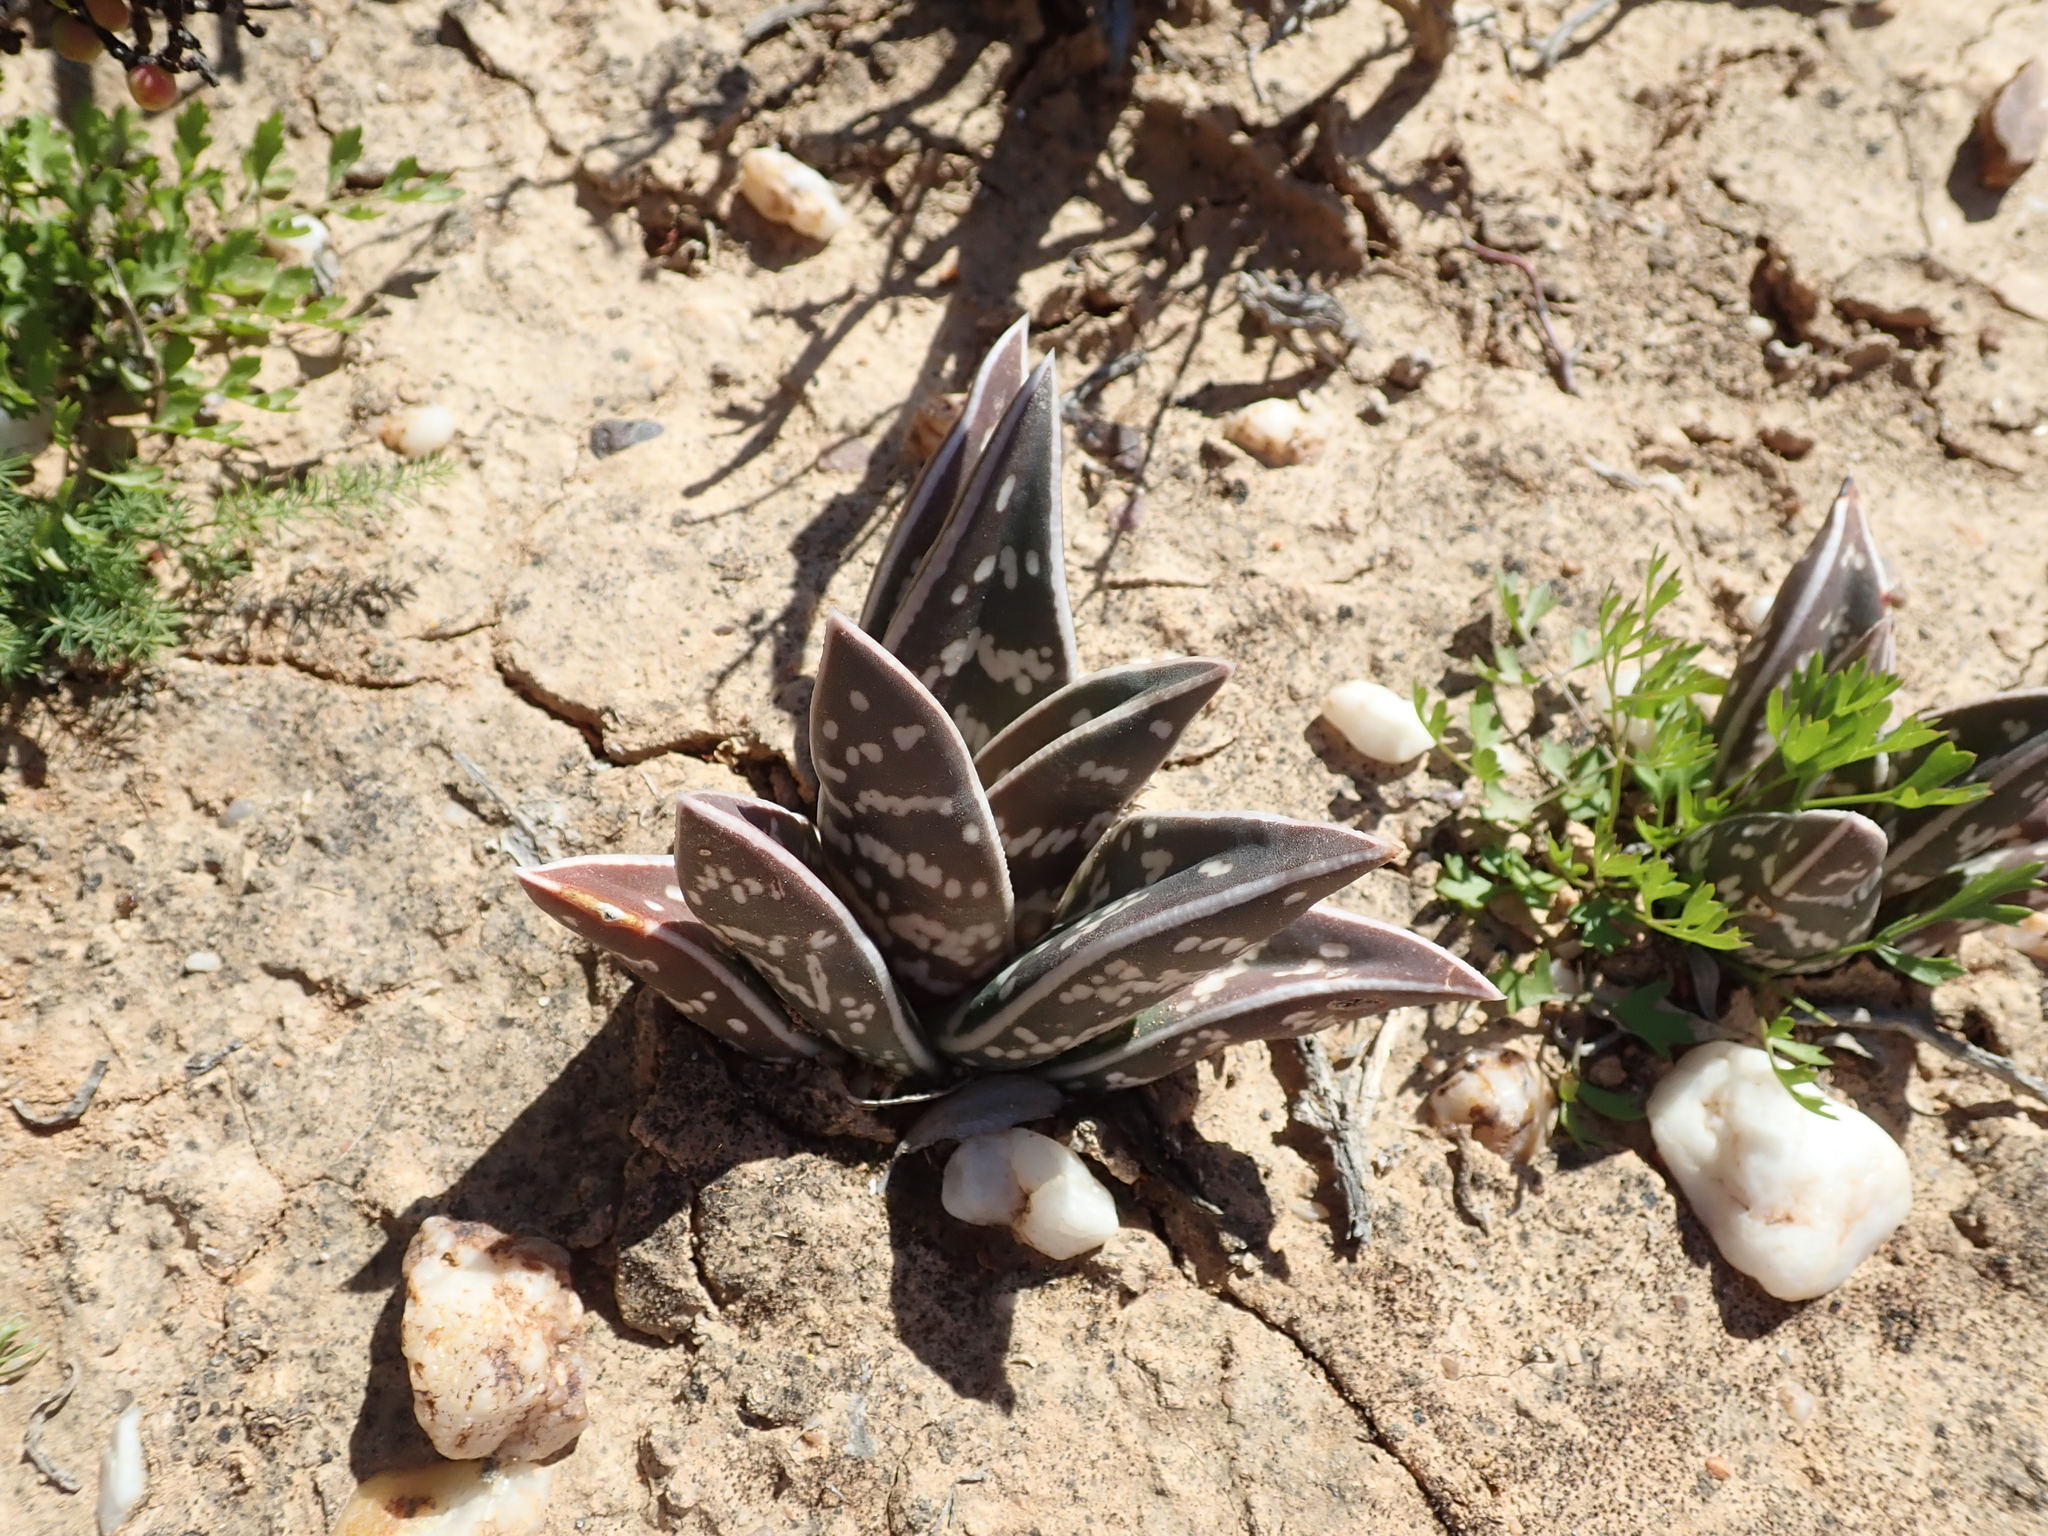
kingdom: Plantae
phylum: Tracheophyta
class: Liliopsida
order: Asparagales
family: Asphodelaceae
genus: Gonialoe
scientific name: Gonialoe variegata
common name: Aloe variegata
